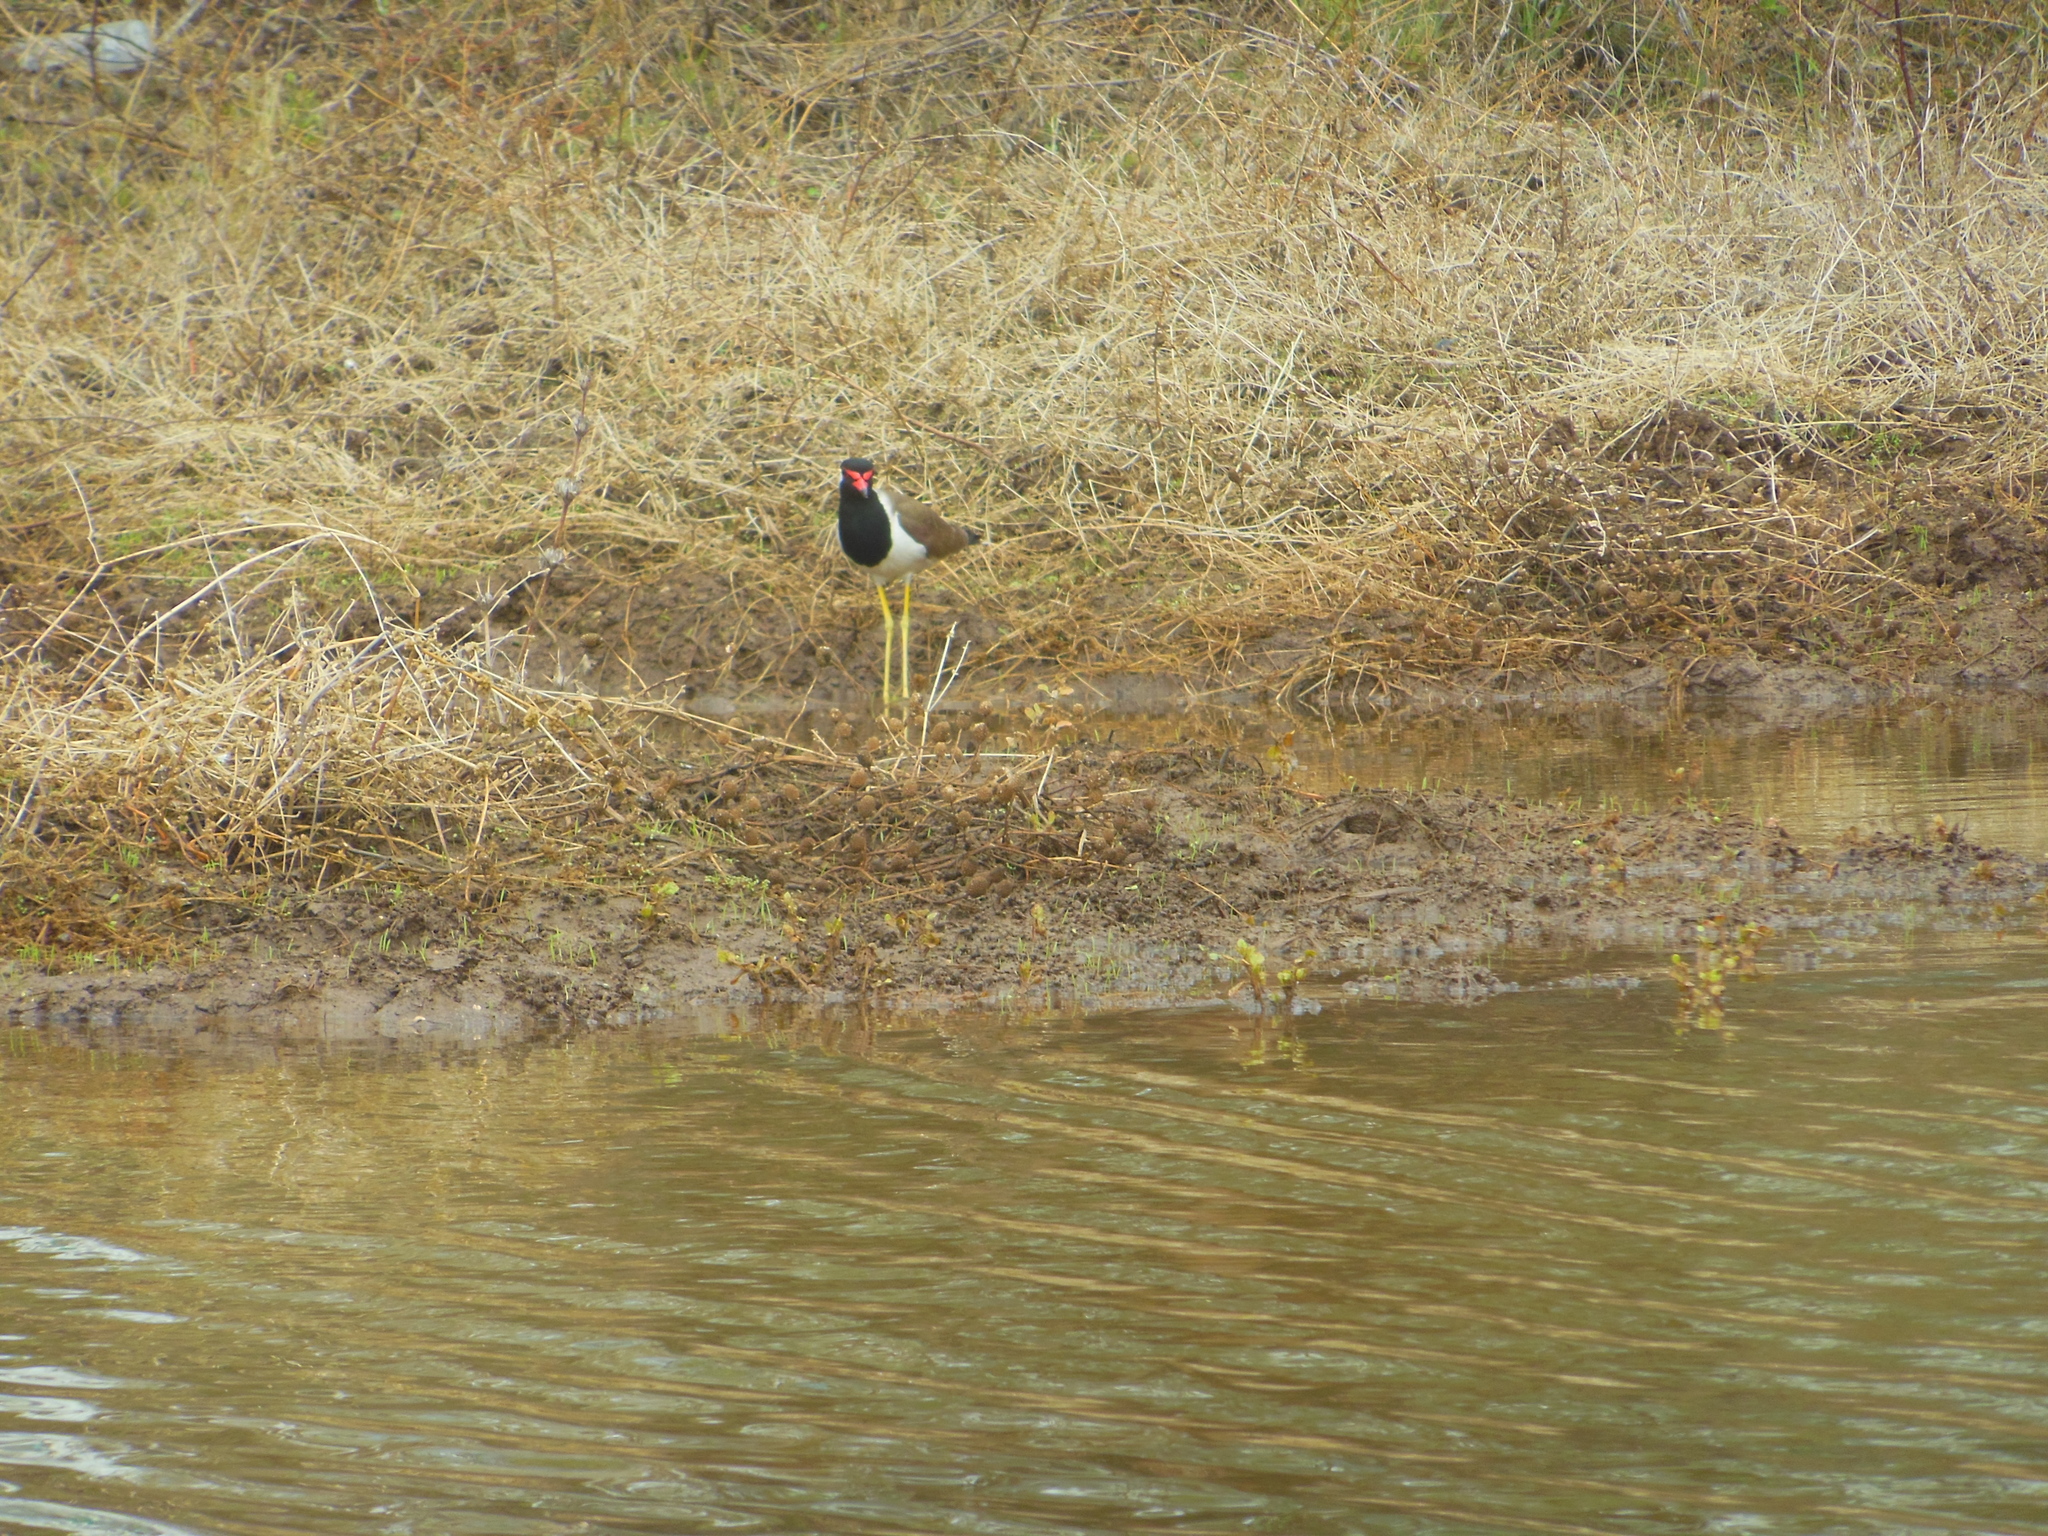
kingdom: Animalia
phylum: Chordata
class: Aves
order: Charadriiformes
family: Charadriidae
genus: Vanellus
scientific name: Vanellus indicus
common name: Red-wattled lapwing
